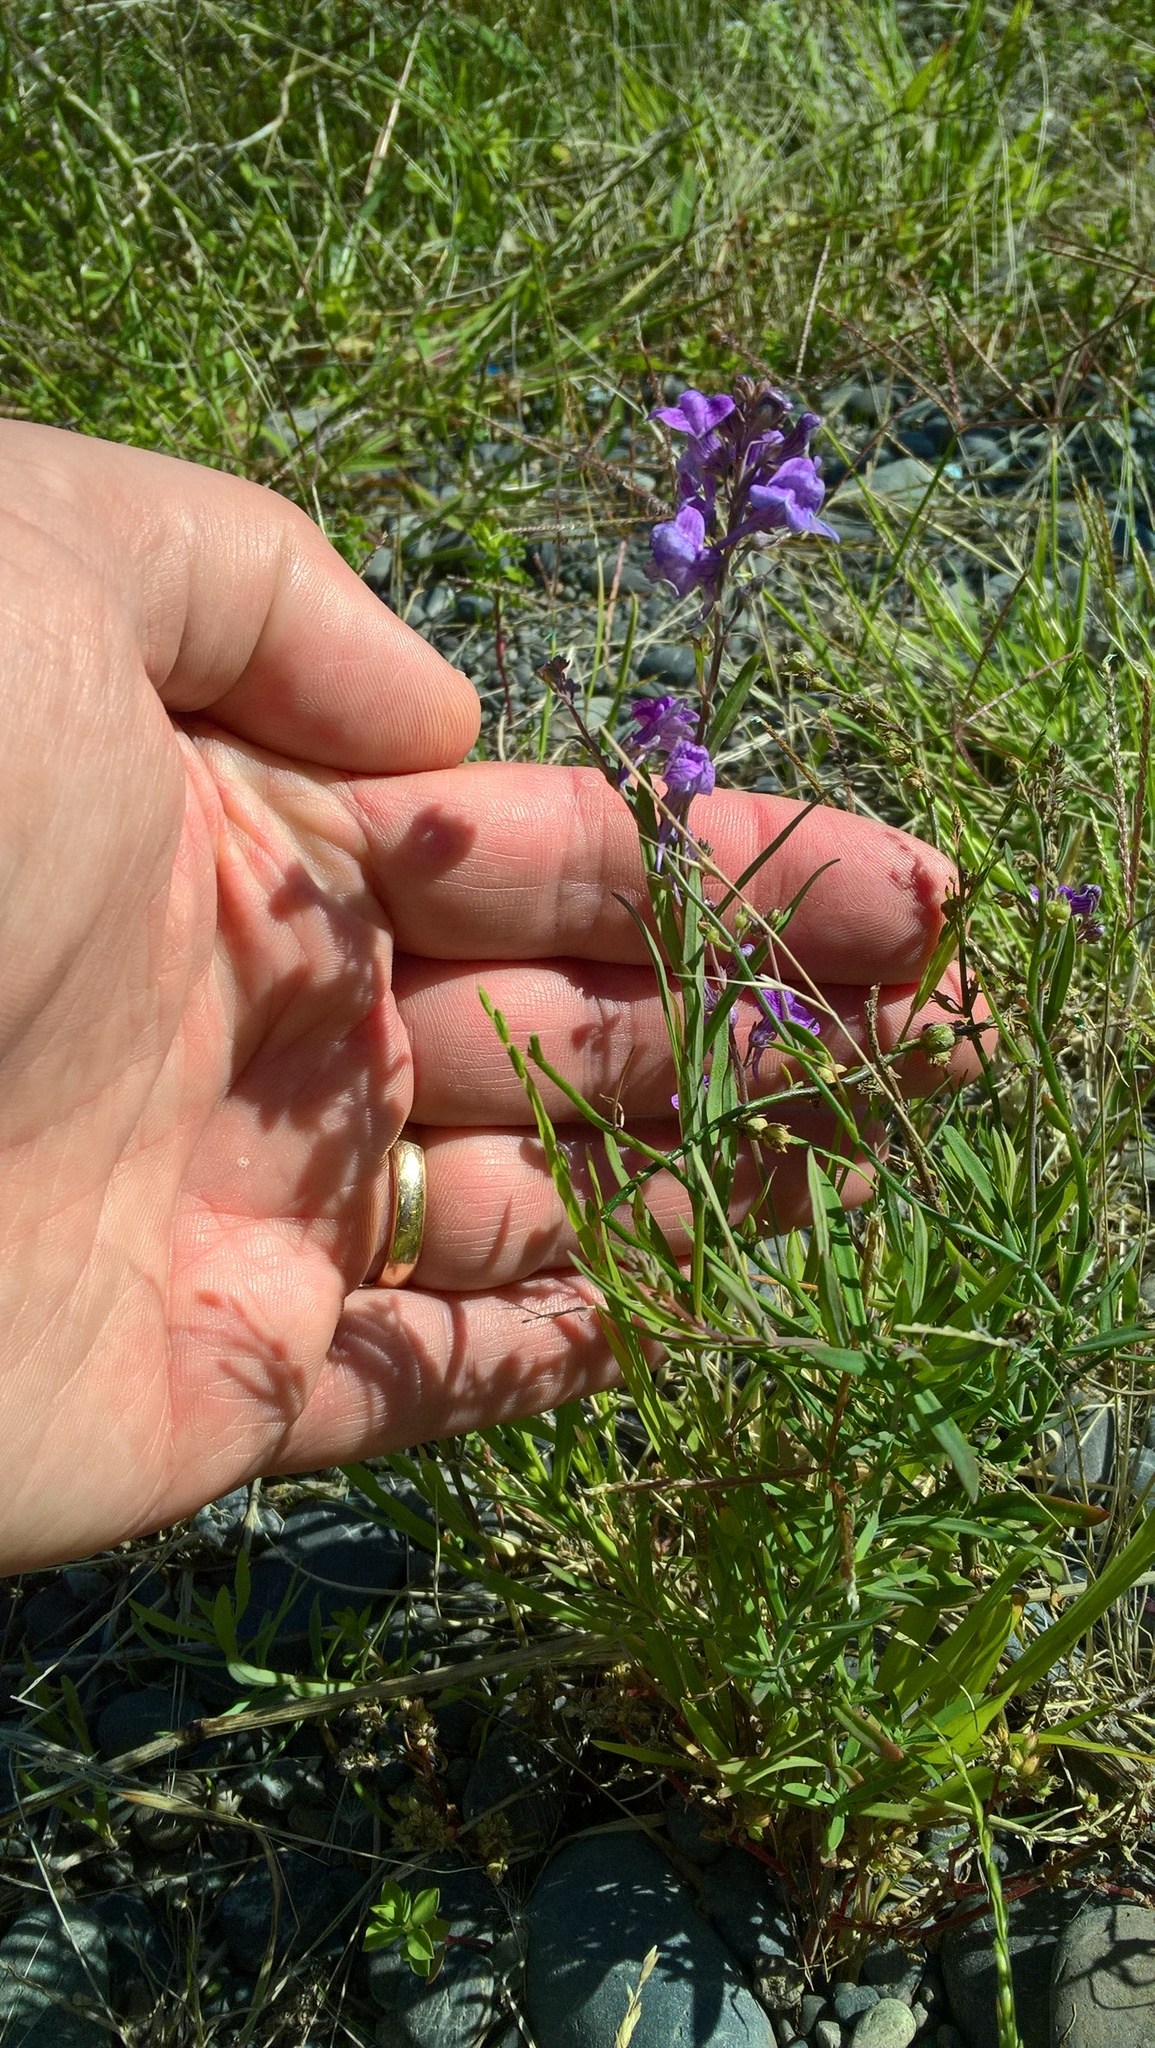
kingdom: Plantae
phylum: Tracheophyta
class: Magnoliopsida
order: Lamiales
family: Plantaginaceae
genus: Linaria
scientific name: Linaria purpurea
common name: Purple toadflax
